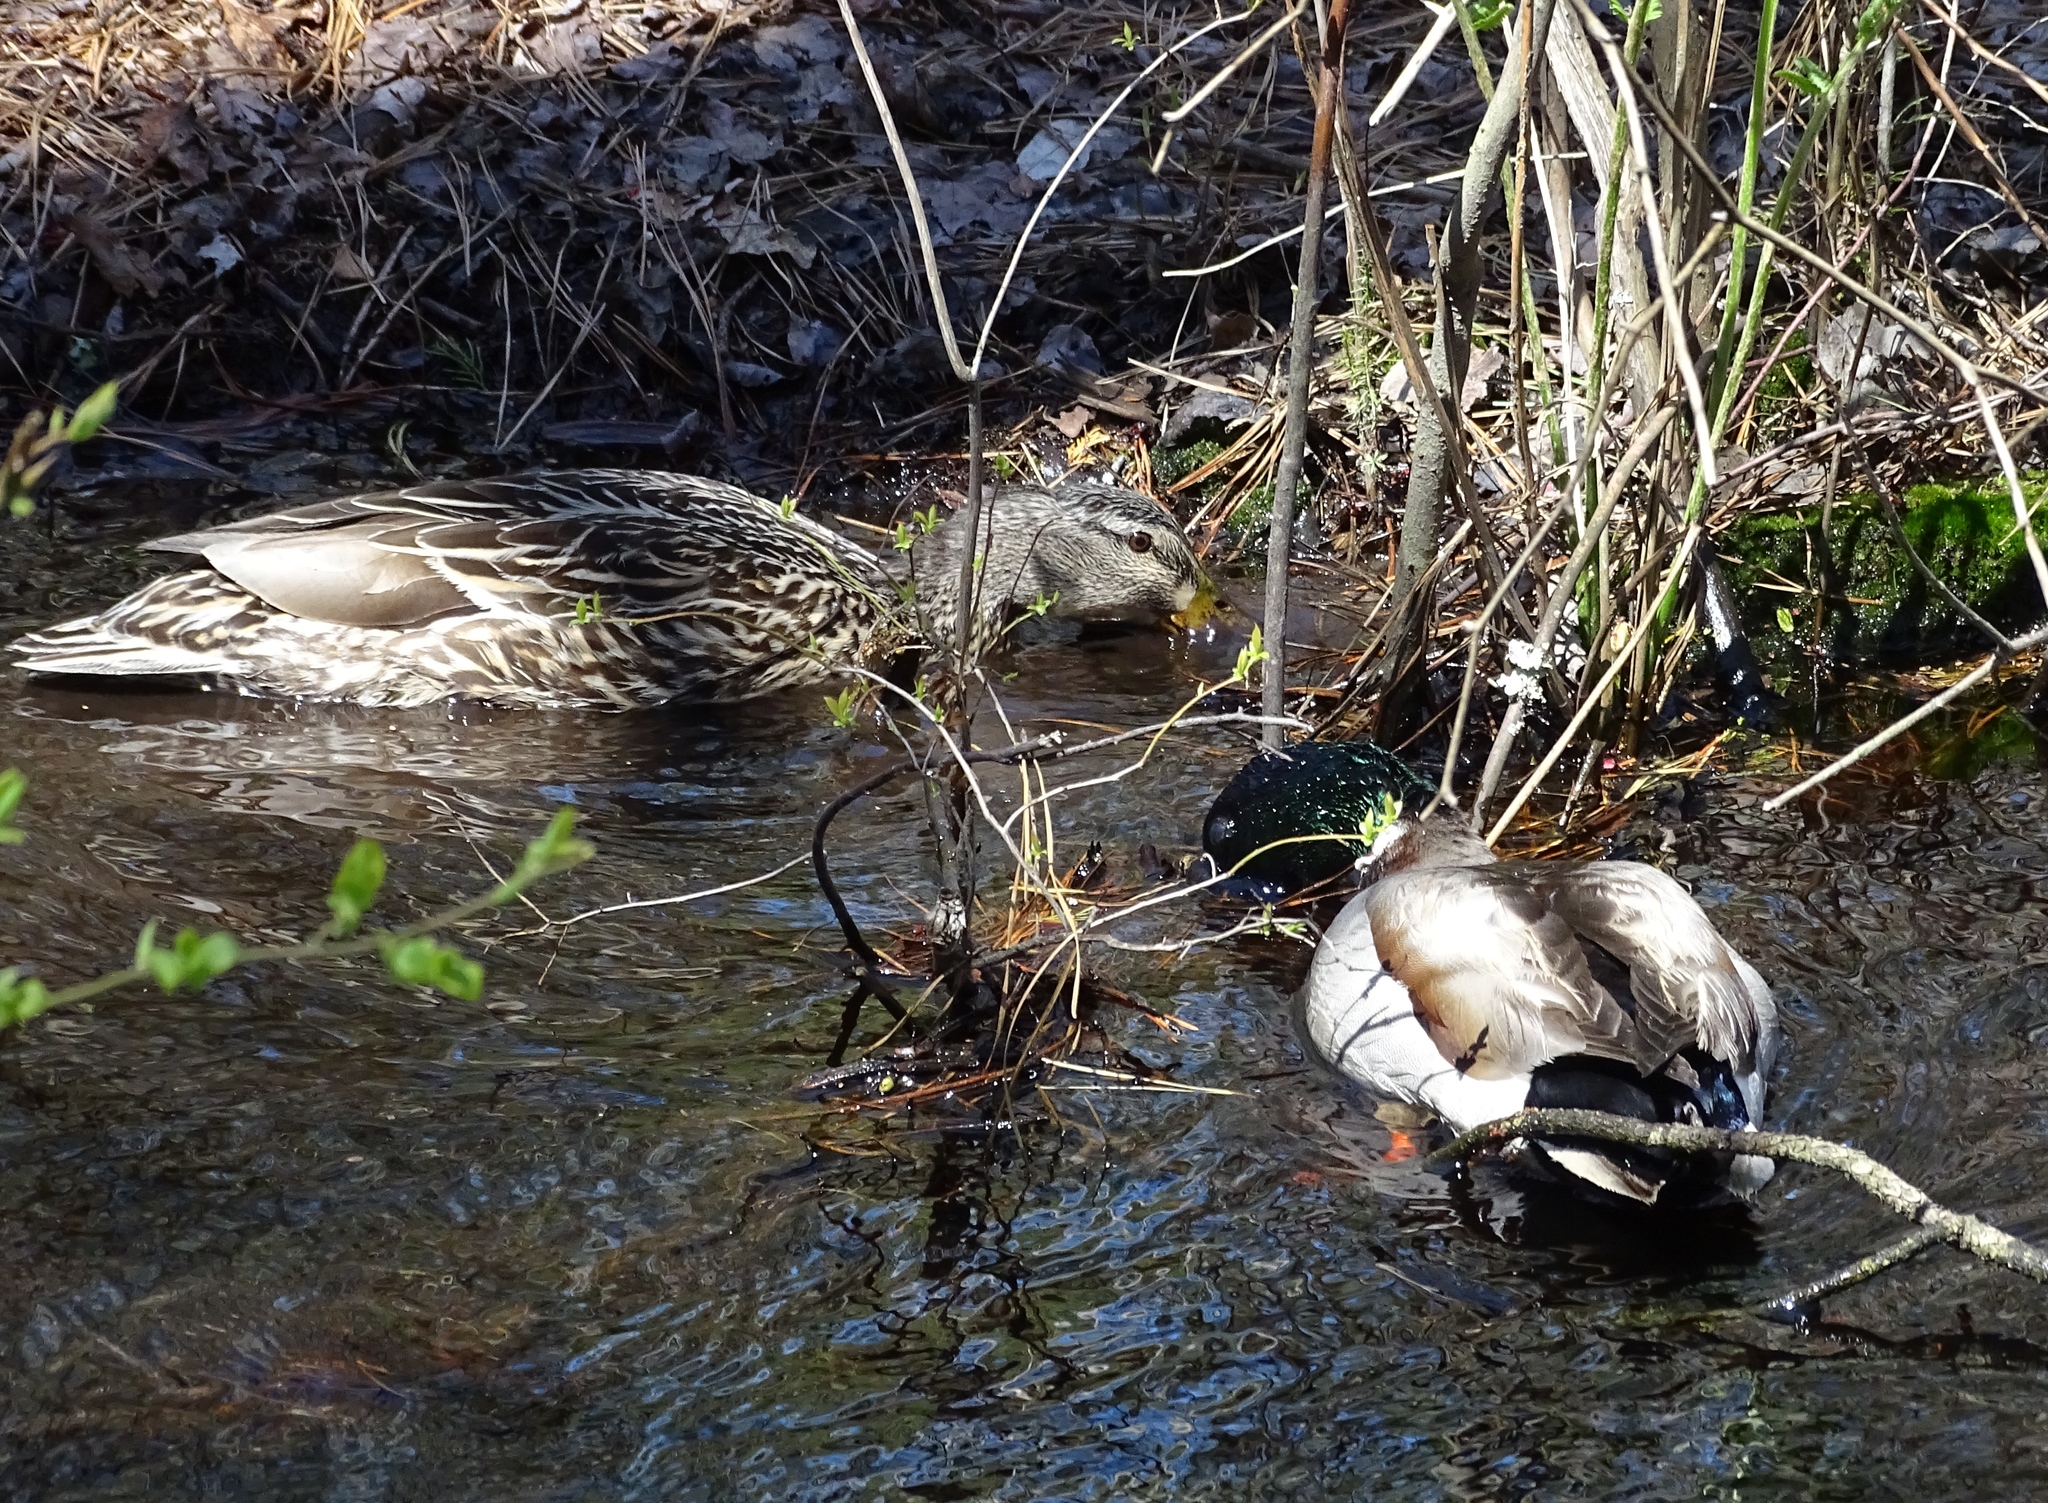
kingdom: Animalia
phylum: Chordata
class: Aves
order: Anseriformes
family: Anatidae
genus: Anas
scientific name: Anas platyrhynchos
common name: Mallard
